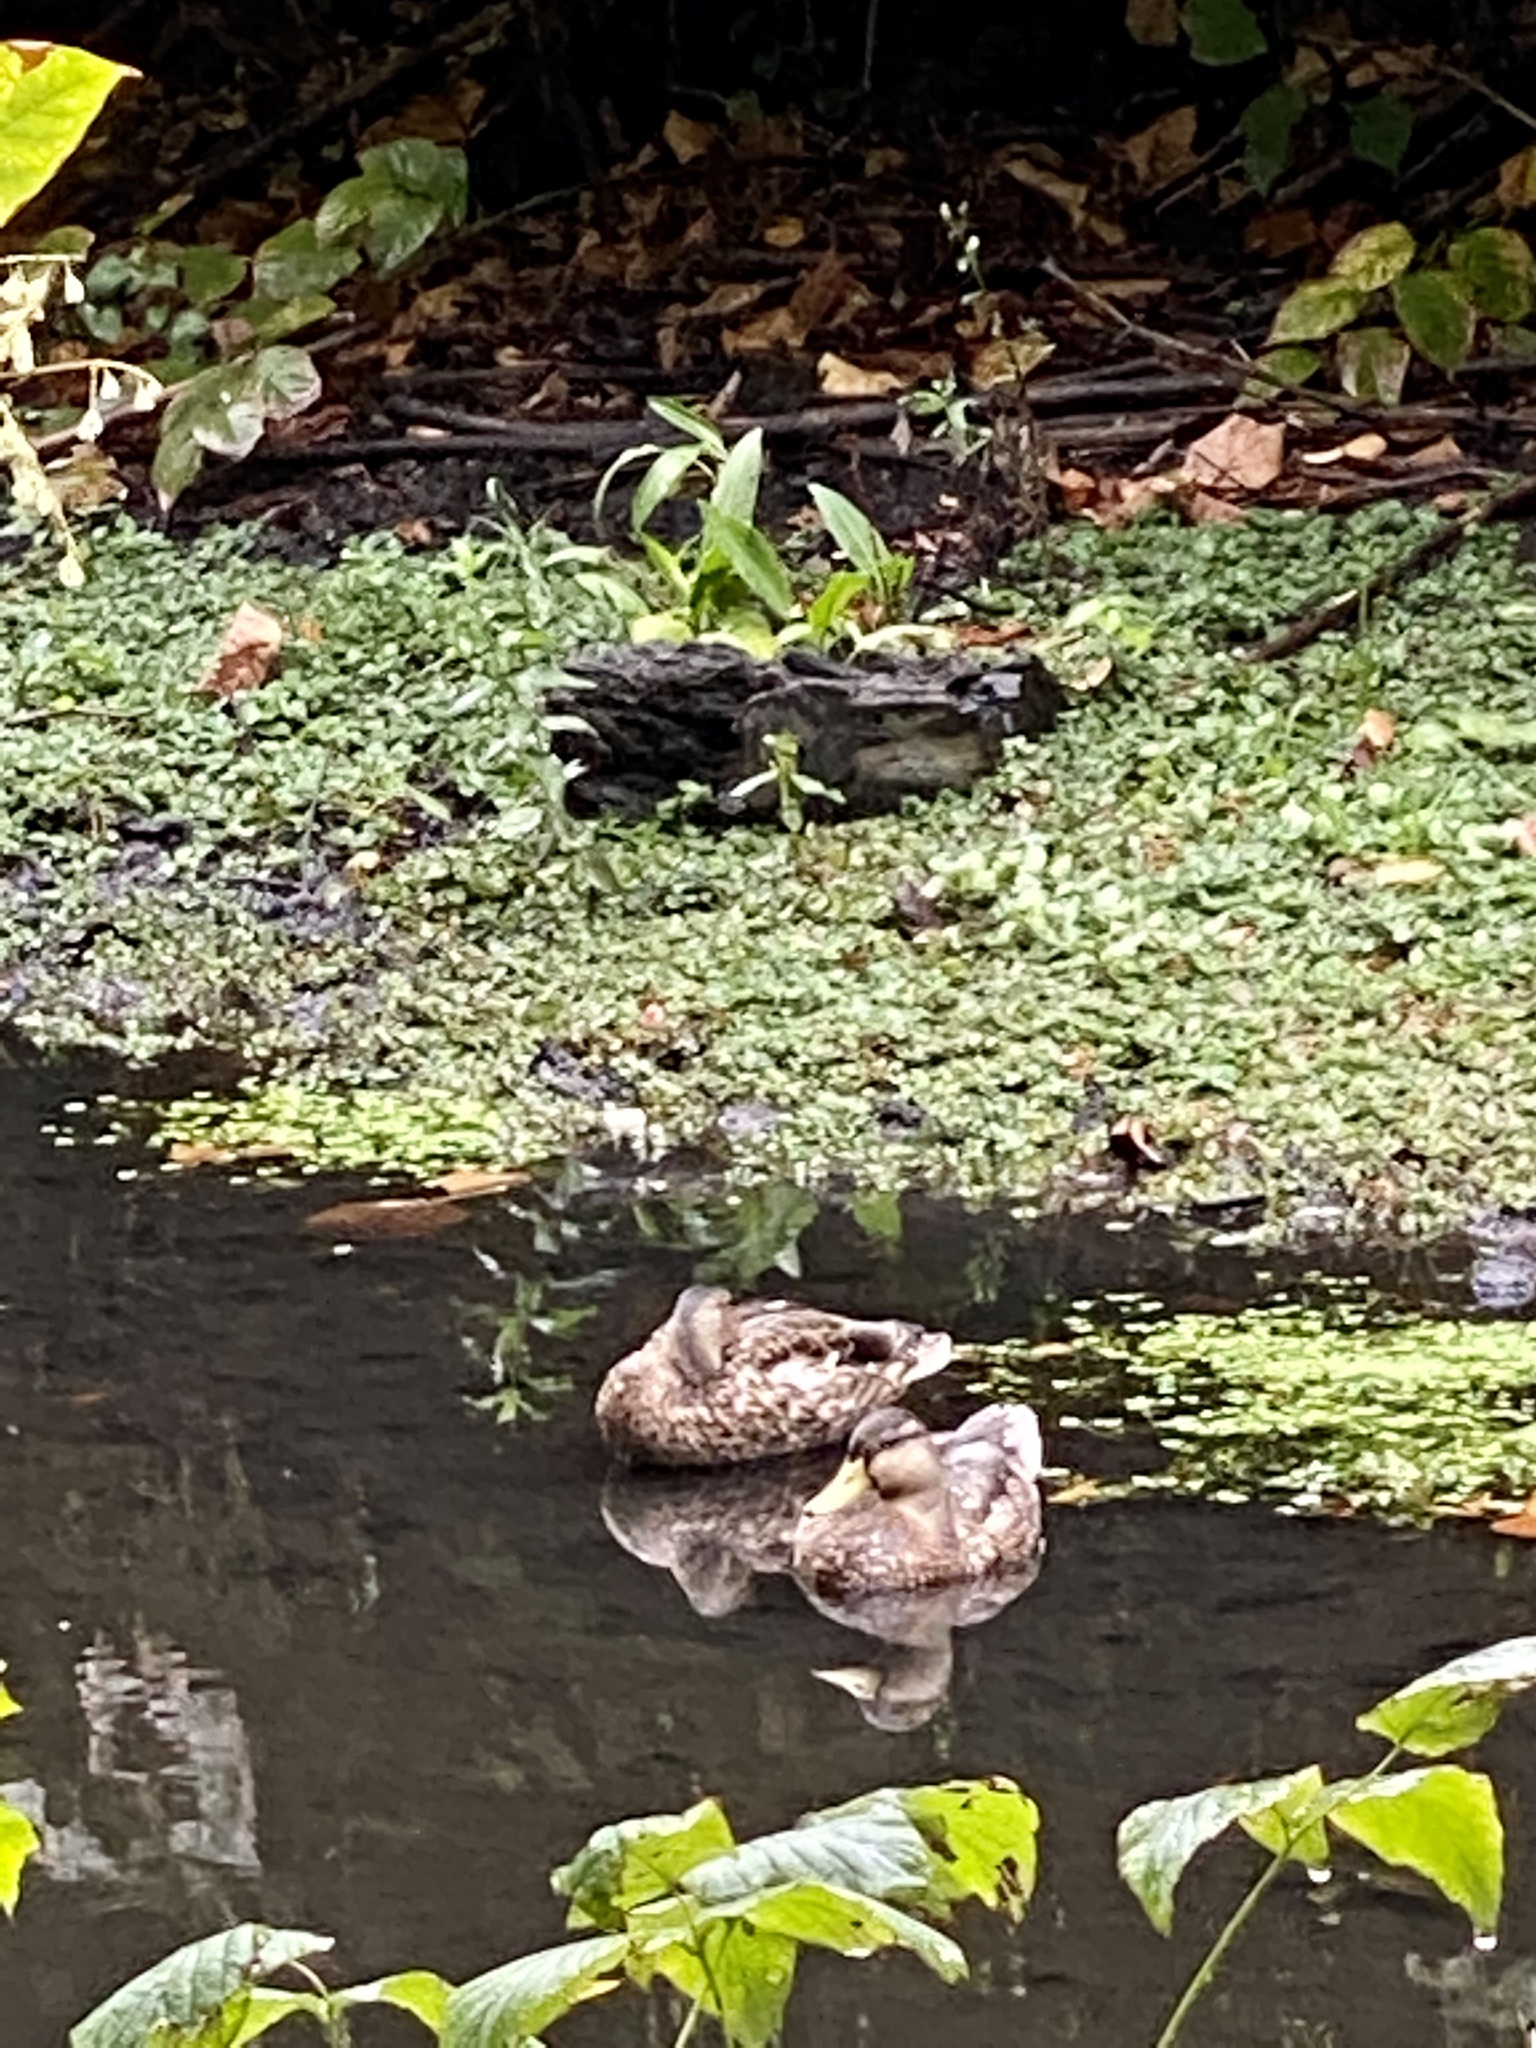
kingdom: Animalia
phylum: Chordata
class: Aves
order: Anseriformes
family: Anatidae
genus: Anas
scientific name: Anas platyrhynchos
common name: Mallard
